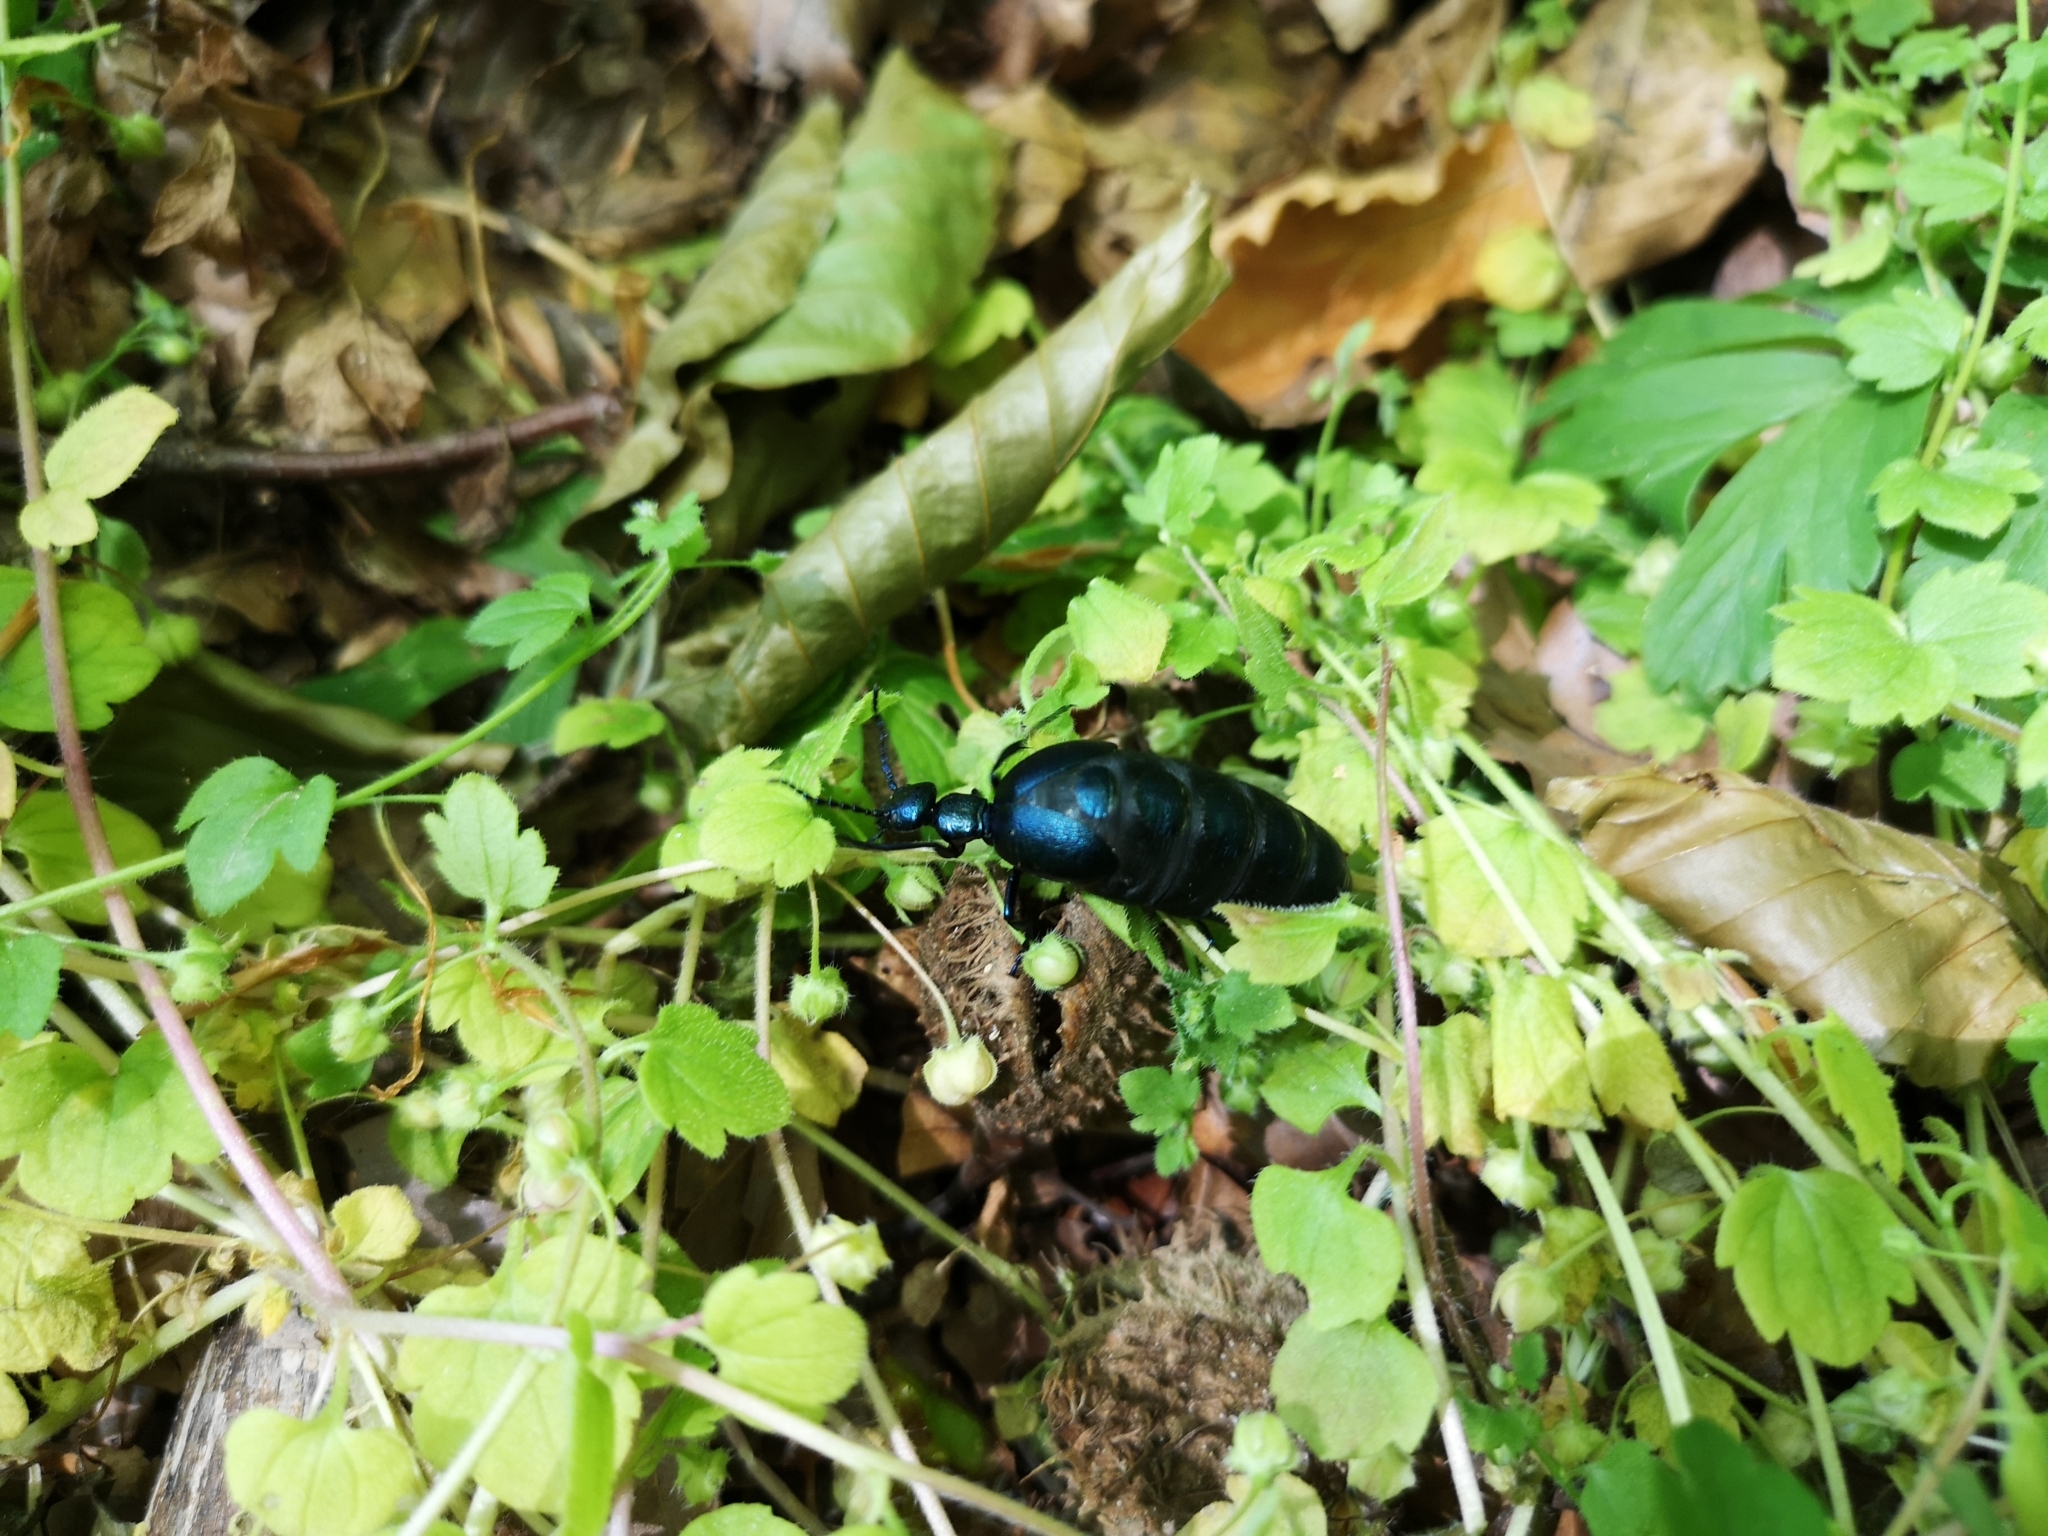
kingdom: Animalia
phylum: Arthropoda
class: Insecta
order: Coleoptera
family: Meloidae
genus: Meloe
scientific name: Meloe violaceus
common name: Violet oil-beetle
